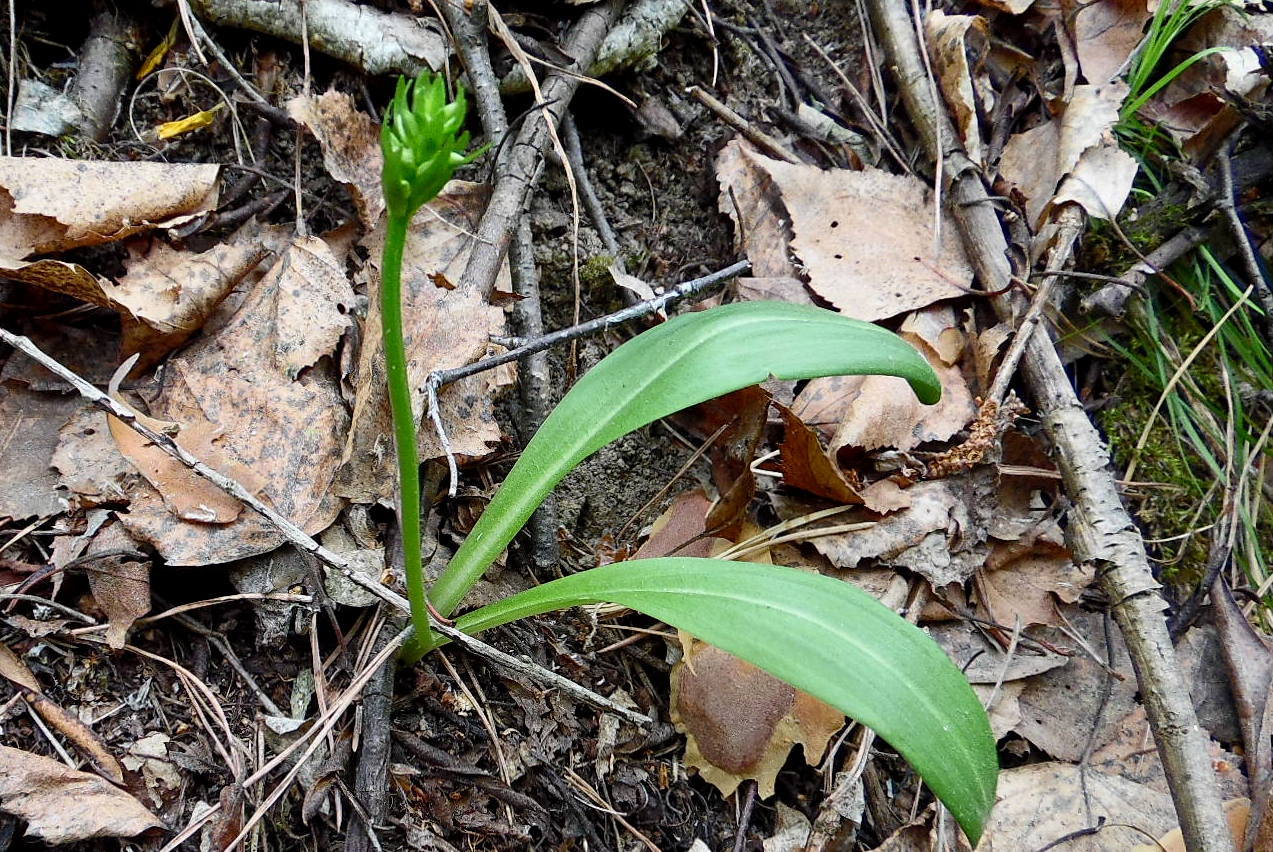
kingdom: Plantae
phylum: Tracheophyta
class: Liliopsida
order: Asparagales
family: Orchidaceae
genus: Platanthera
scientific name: Platanthera bifolia
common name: Lesser butterfly-orchid
